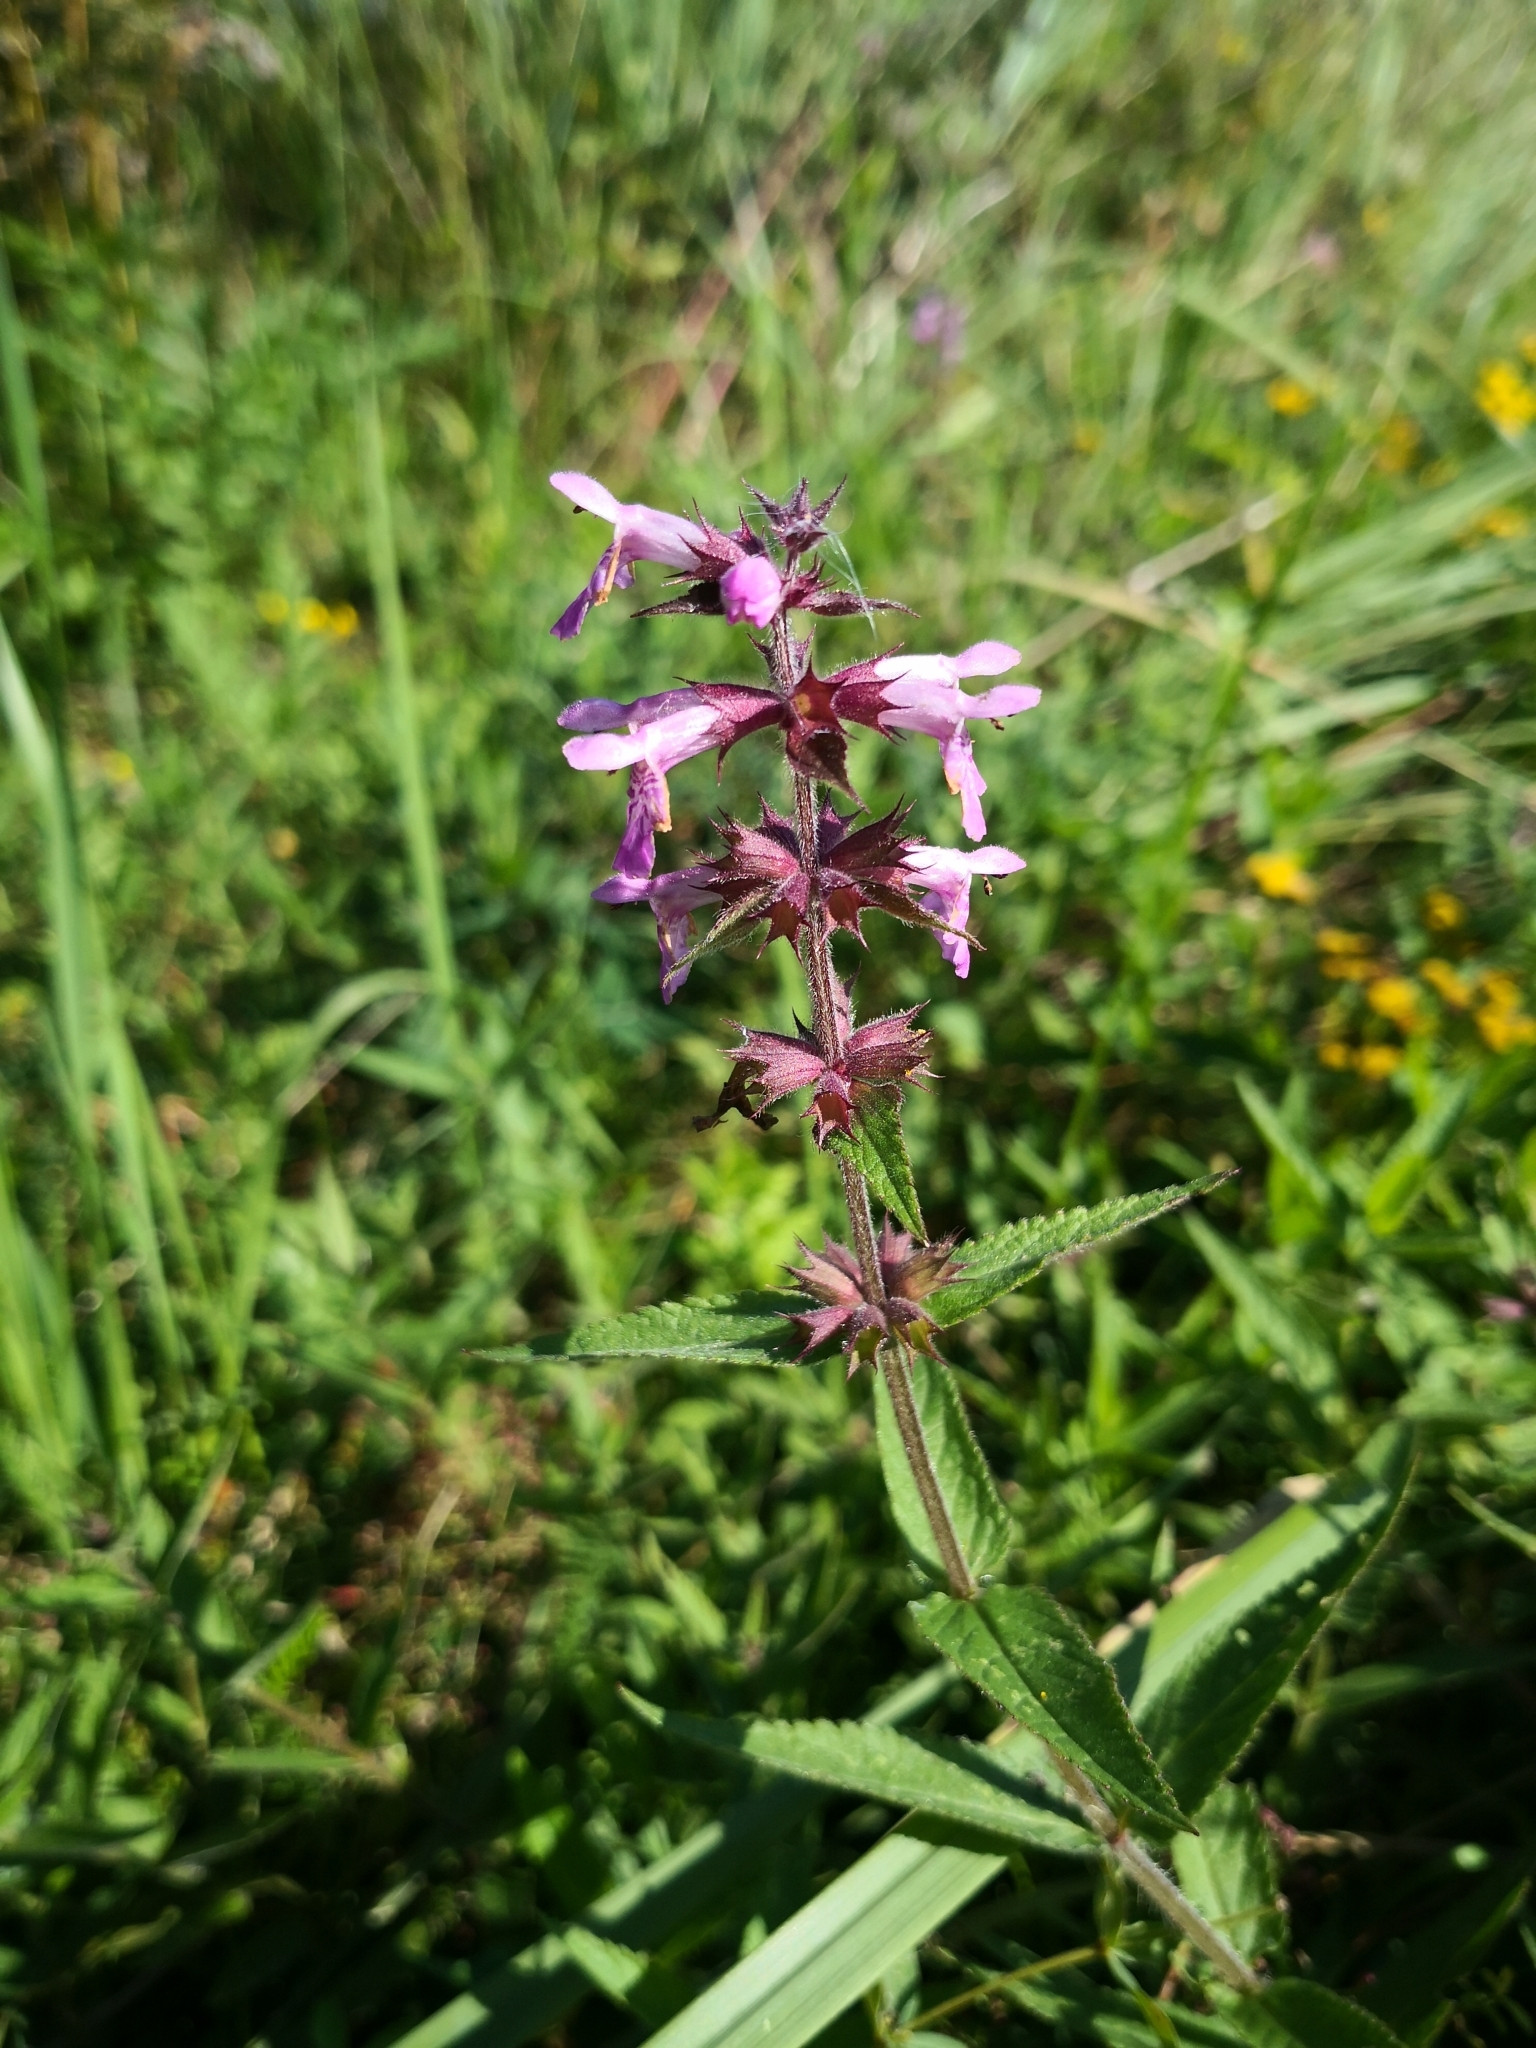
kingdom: Plantae
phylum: Tracheophyta
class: Magnoliopsida
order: Lamiales
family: Lamiaceae
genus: Stachys
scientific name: Stachys palustris
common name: Marsh woundwort
